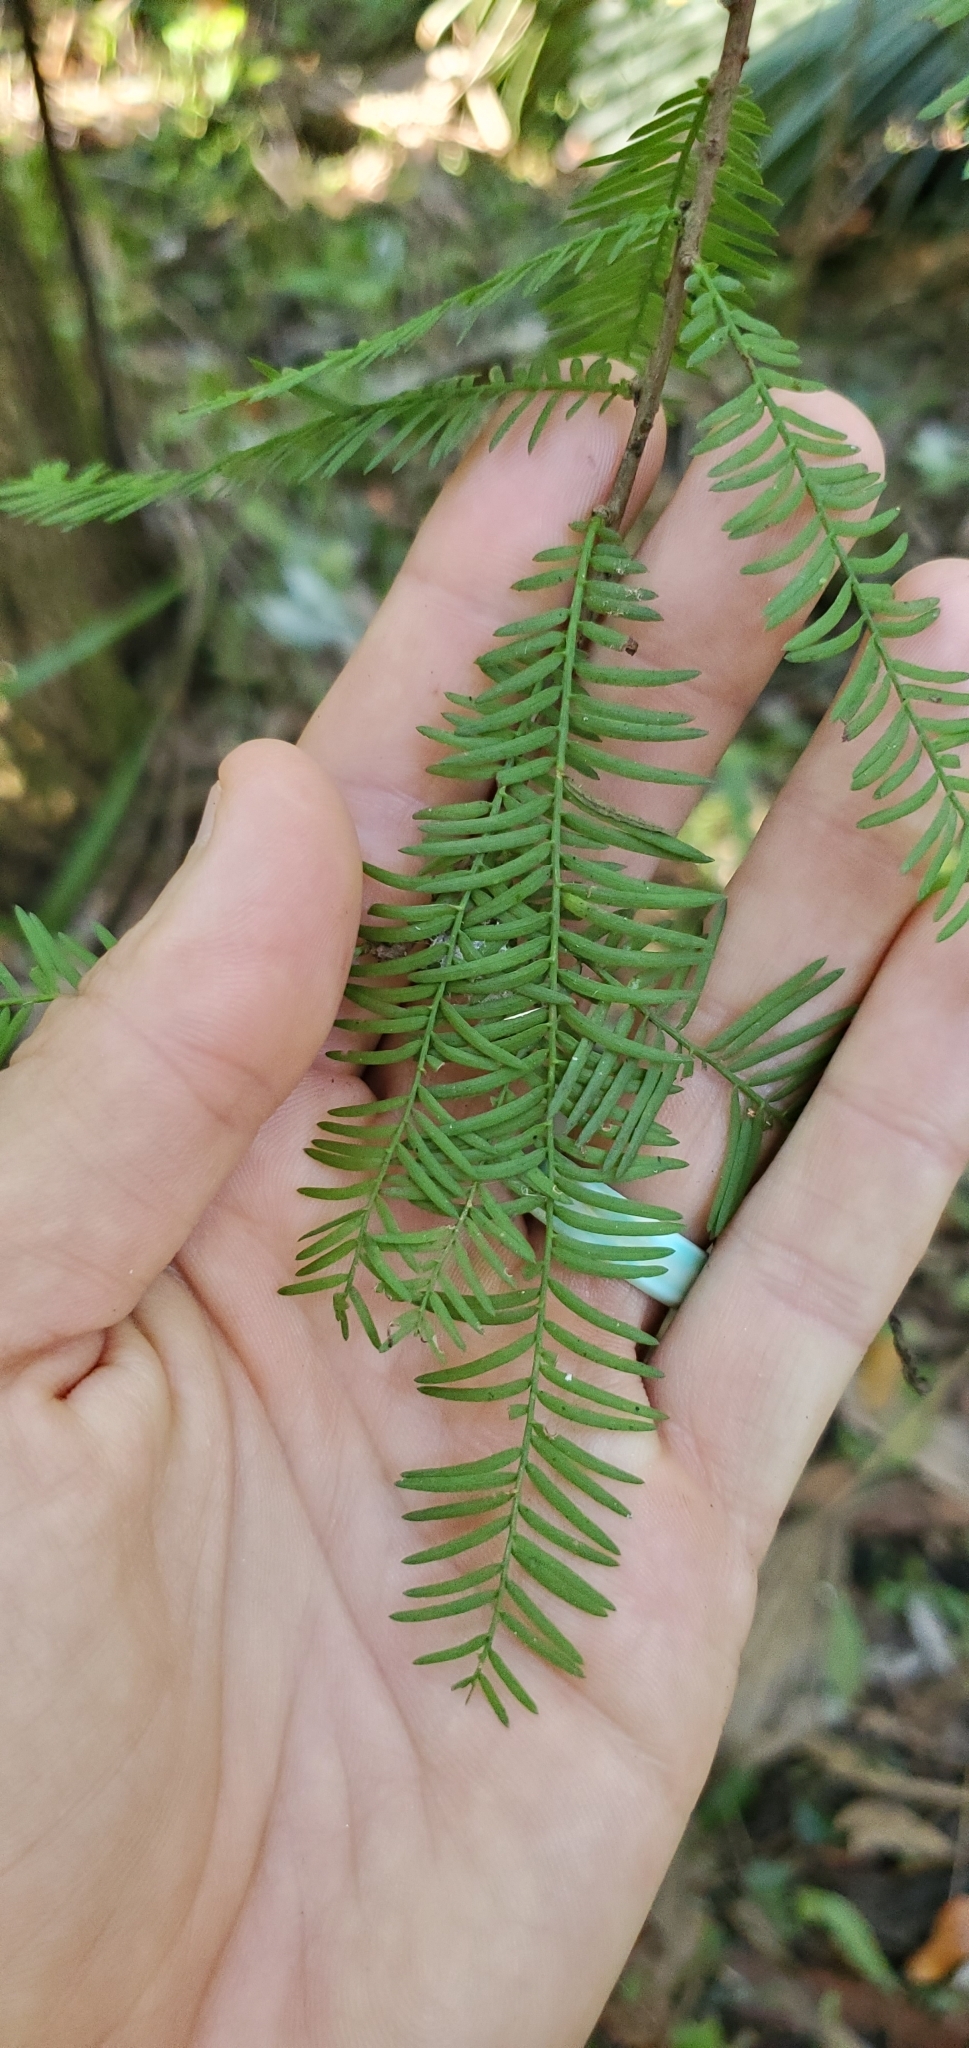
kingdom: Plantae
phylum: Tracheophyta
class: Pinopsida
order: Pinales
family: Cupressaceae
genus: Taxodium
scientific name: Taxodium distichum
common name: Bald cypress
